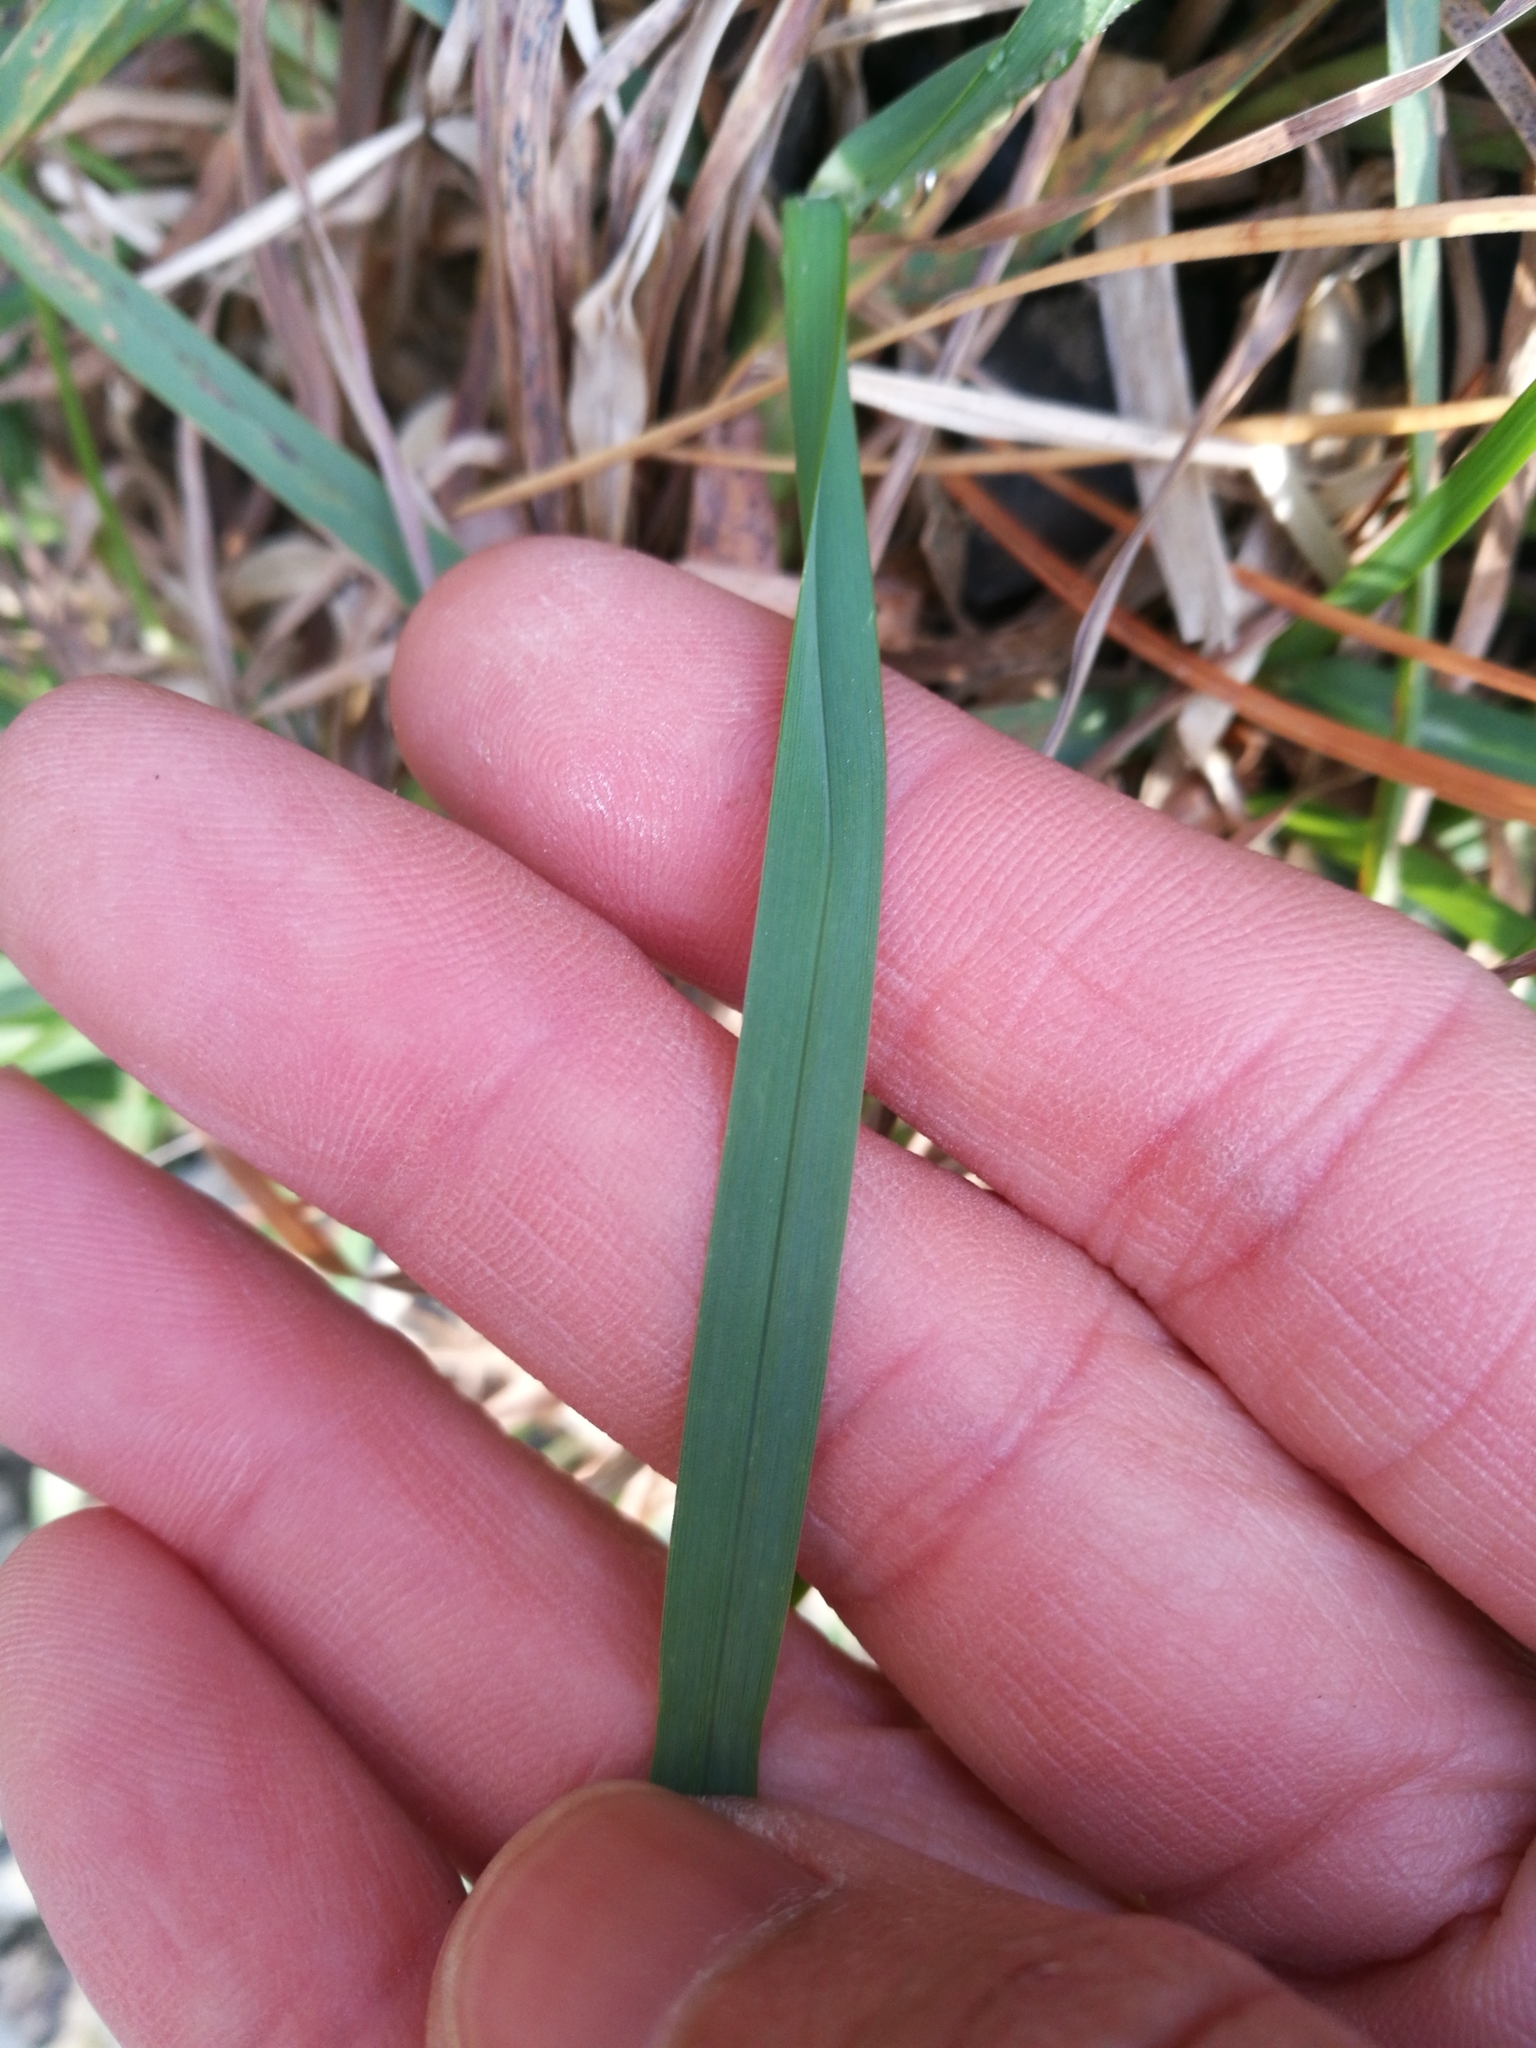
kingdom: Plantae
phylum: Tracheophyta
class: Liliopsida
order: Poales
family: Poaceae
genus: Dactylis
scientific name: Dactylis glomerata
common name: Orchardgrass
